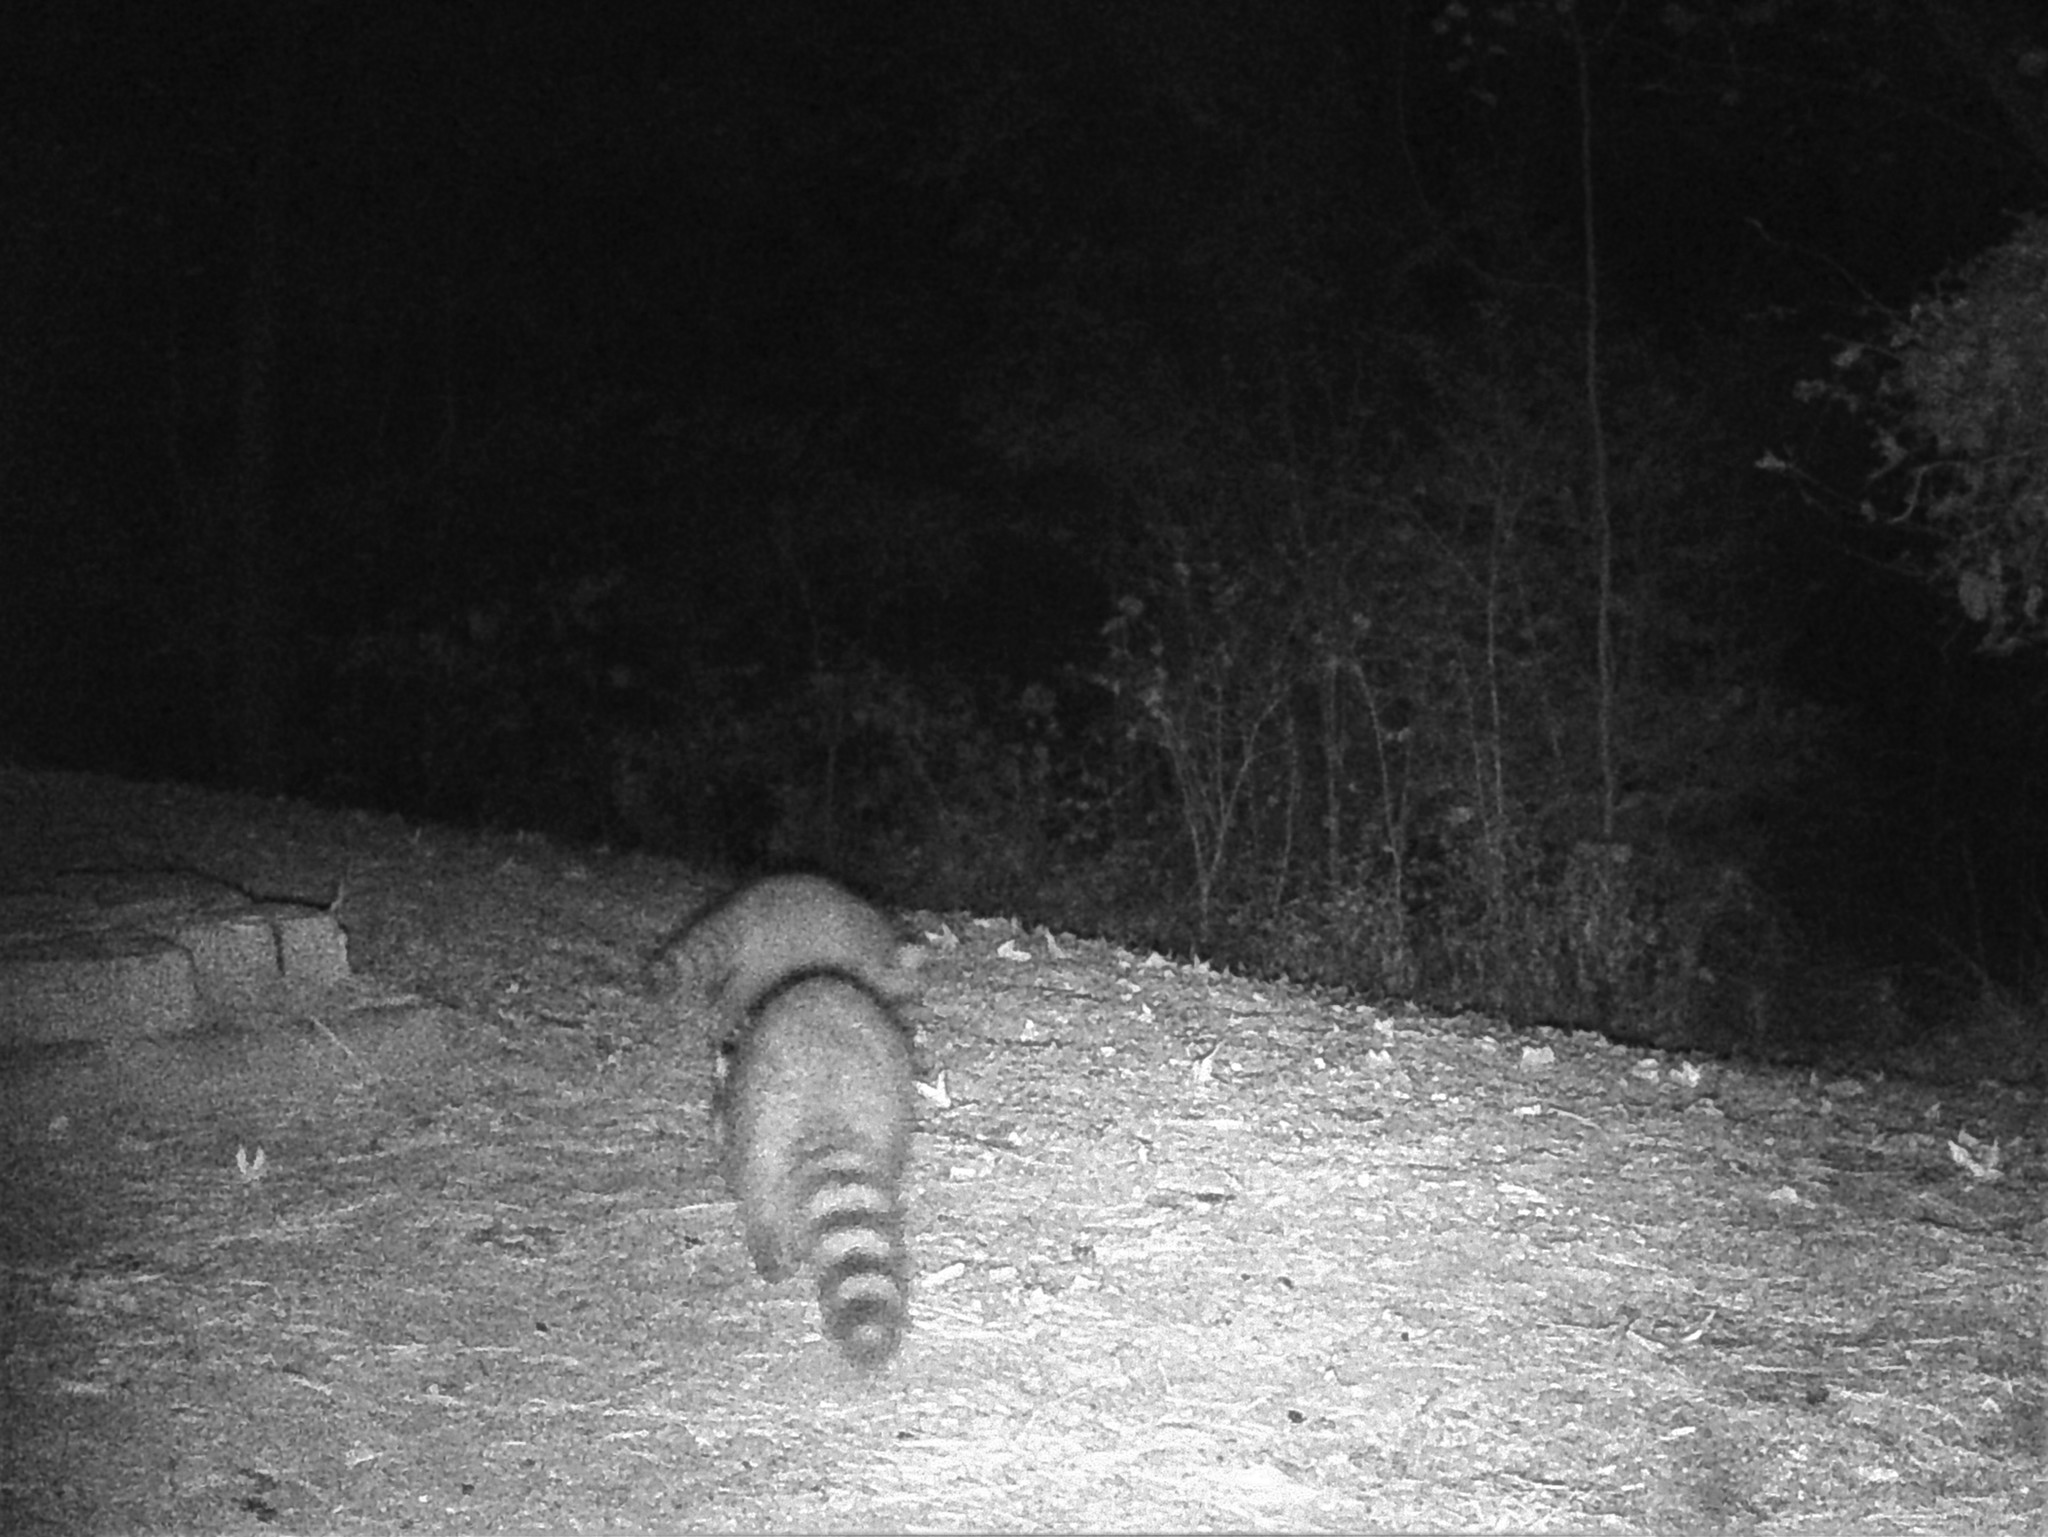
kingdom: Animalia
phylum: Chordata
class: Mammalia
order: Carnivora
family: Procyonidae
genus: Procyon
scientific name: Procyon lotor
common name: Raccoon
